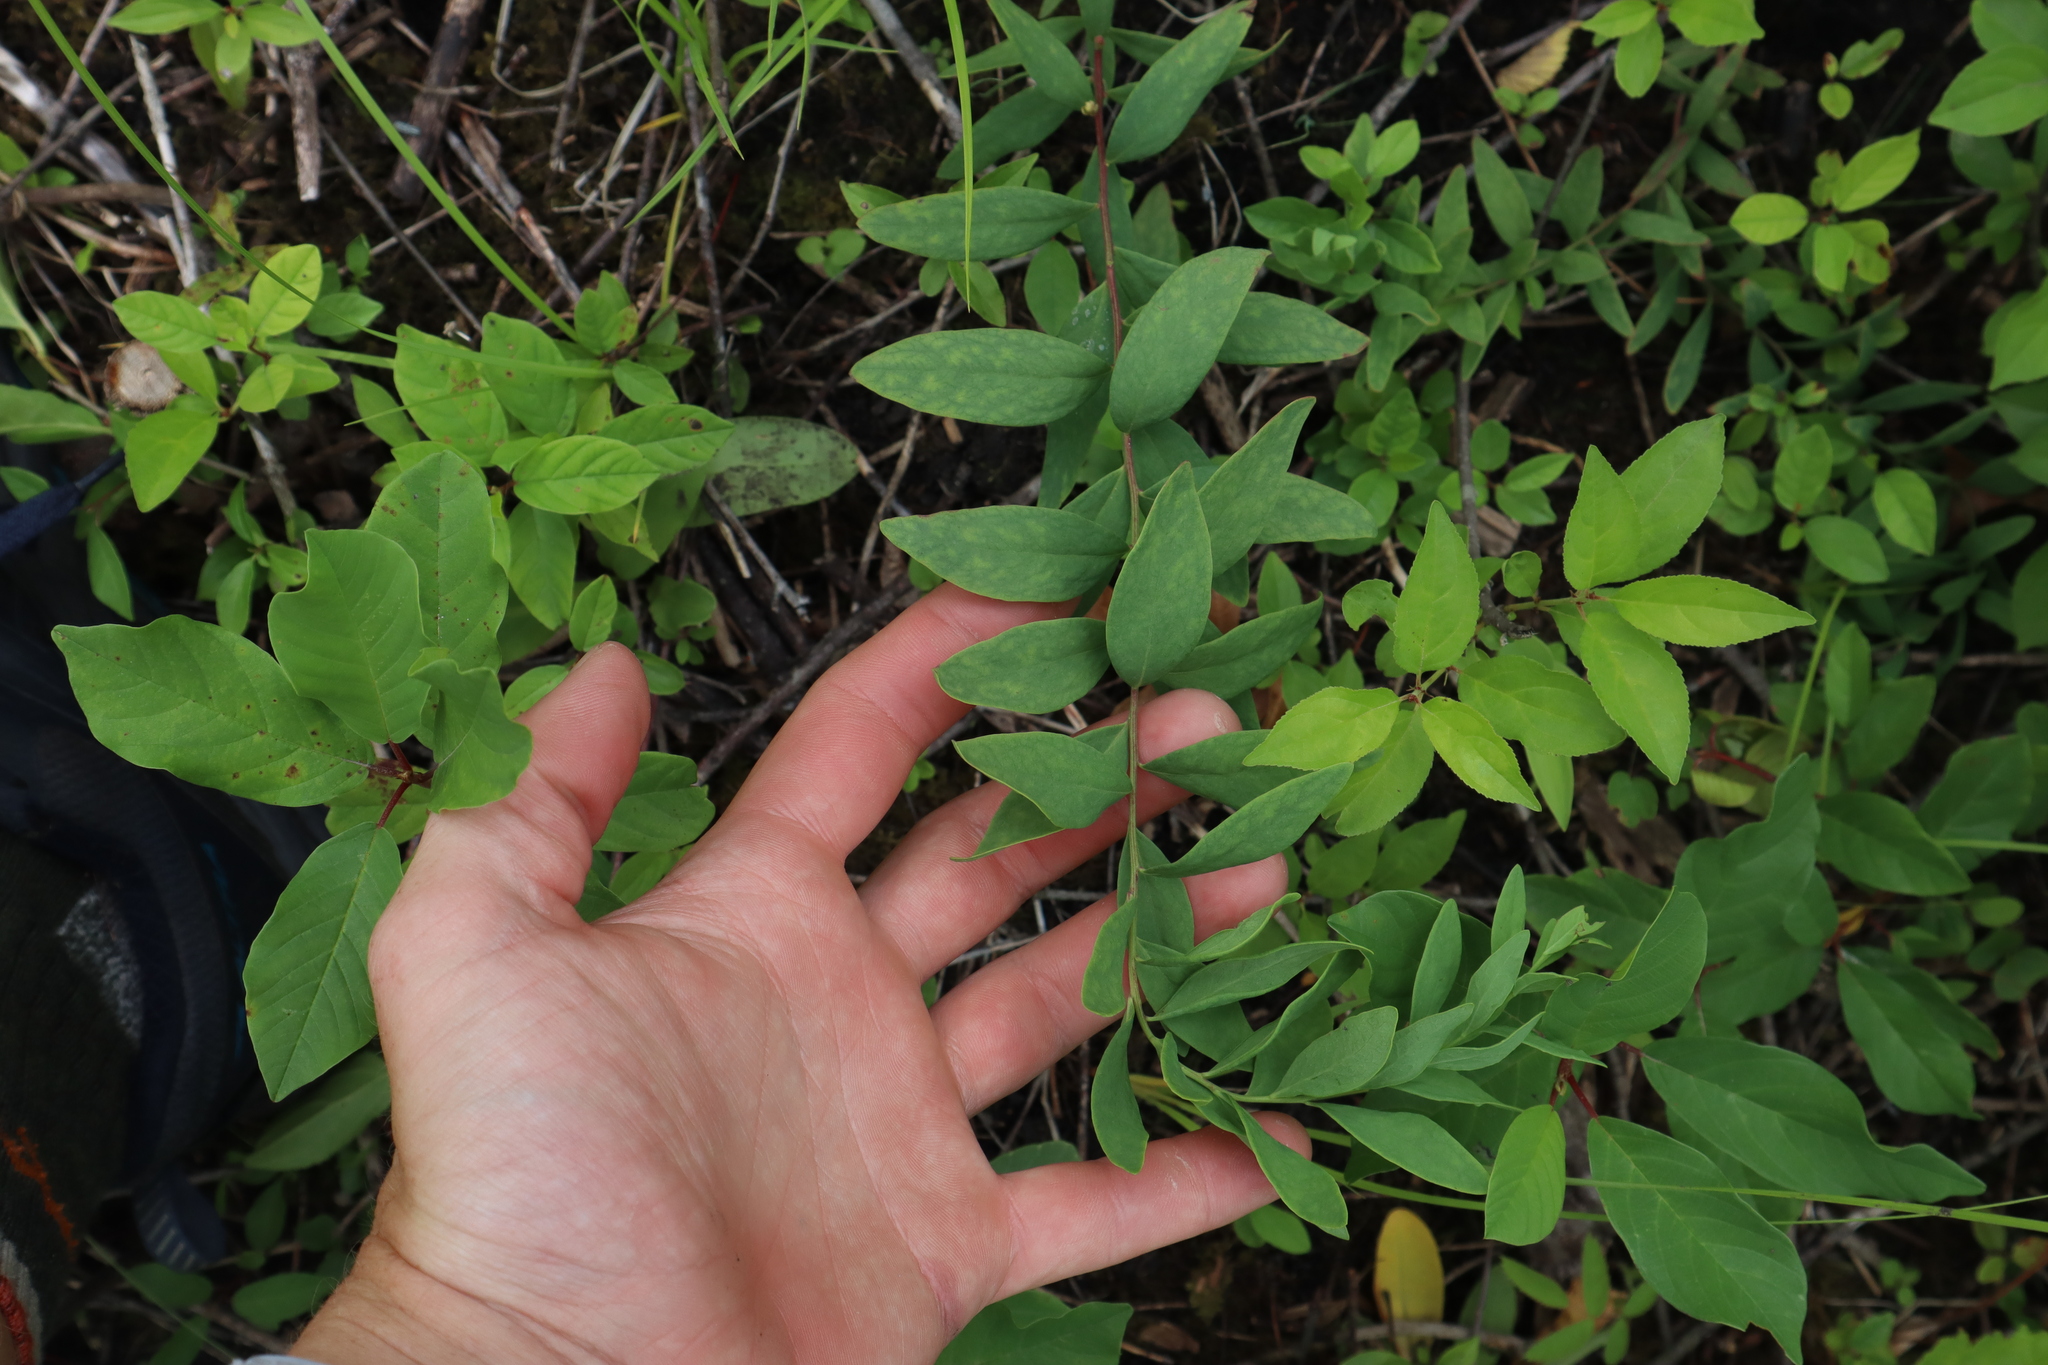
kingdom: Plantae
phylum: Tracheophyta
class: Magnoliopsida
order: Santalales
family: Comandraceae
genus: Comandra
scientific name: Comandra umbellata
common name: Bastard toadflax
